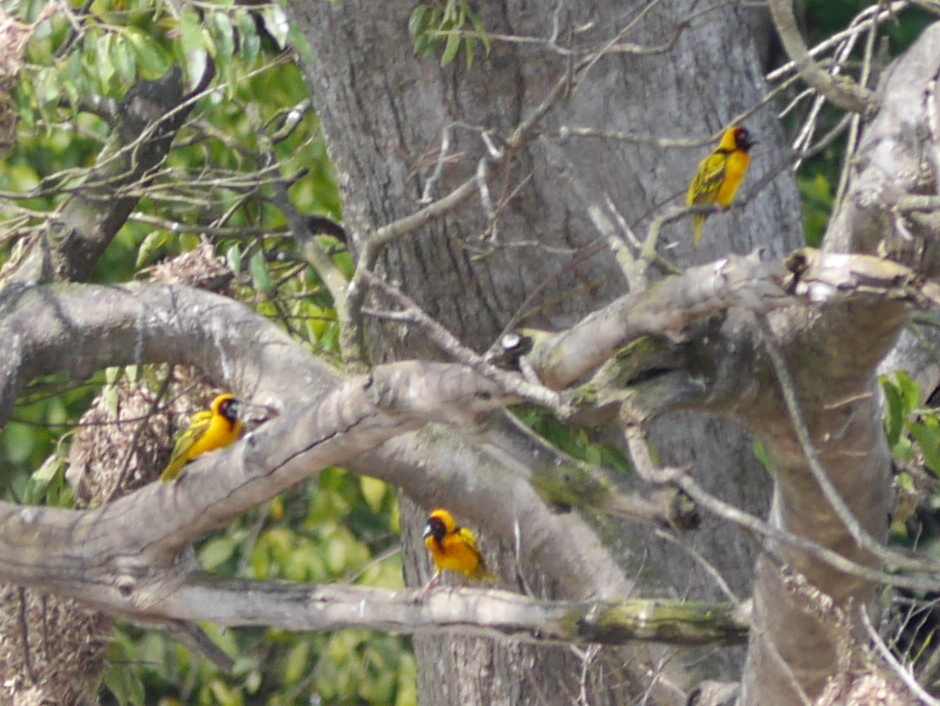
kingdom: Animalia
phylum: Chordata
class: Aves
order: Passeriformes
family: Ploceidae
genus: Ploceus
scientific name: Ploceus cucullatus
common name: Village weaver
